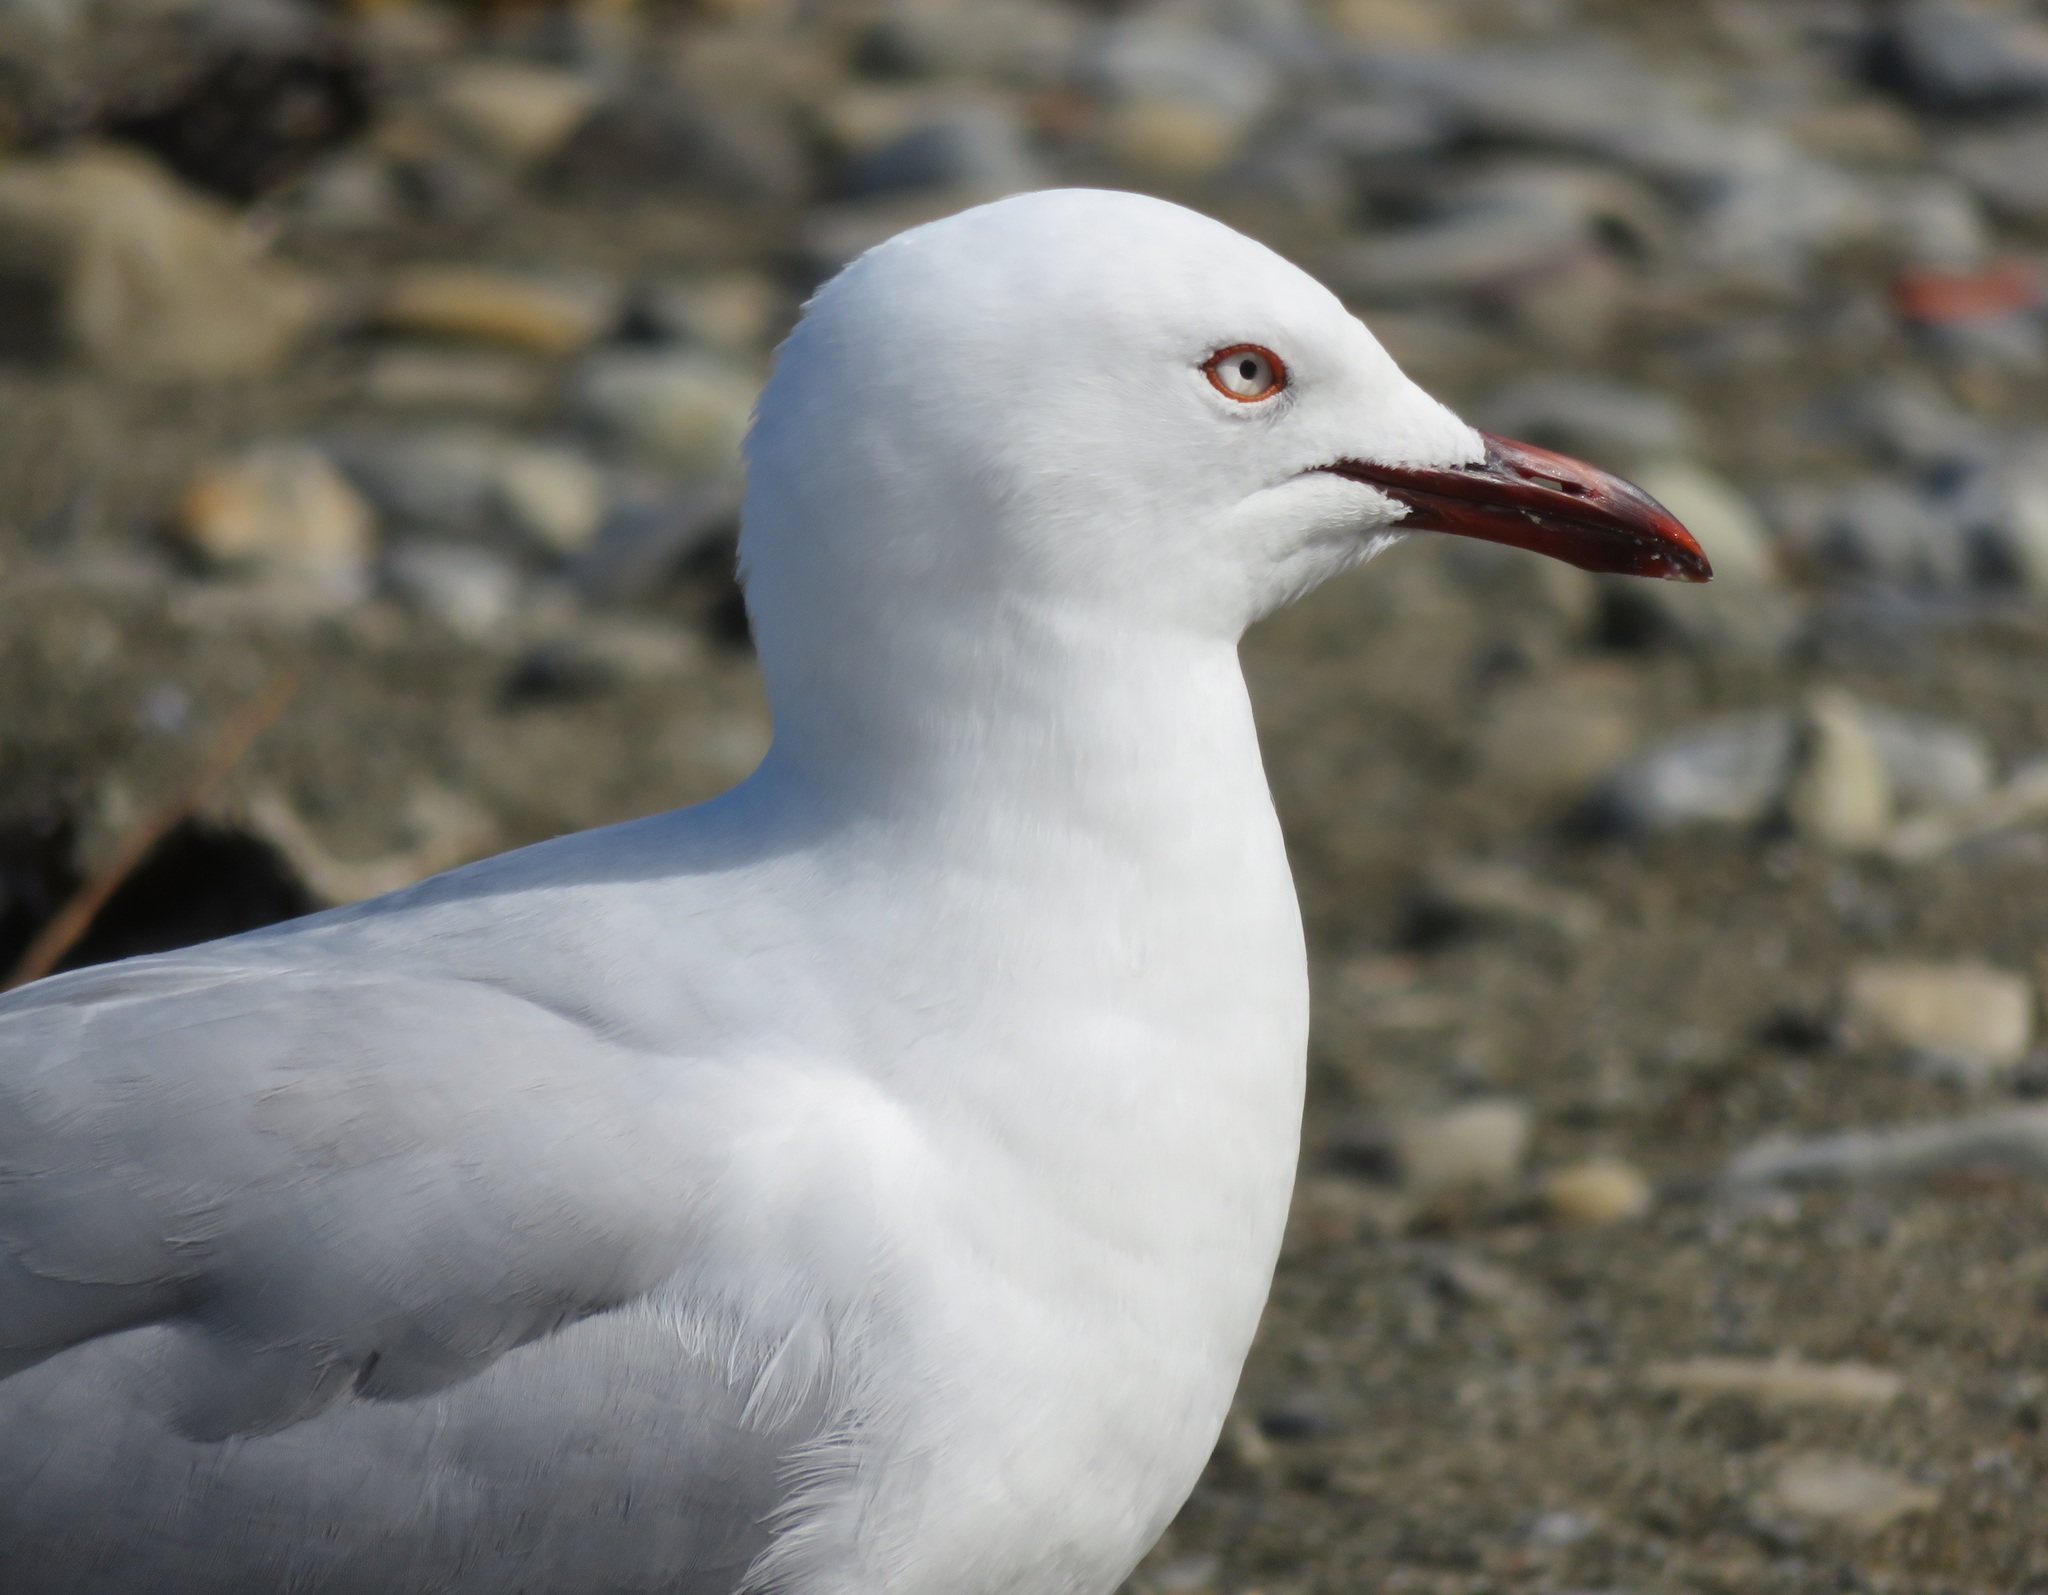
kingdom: Animalia
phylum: Chordata
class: Aves
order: Charadriiformes
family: Laridae
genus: Chroicocephalus
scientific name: Chroicocephalus novaehollandiae
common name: Silver gull
